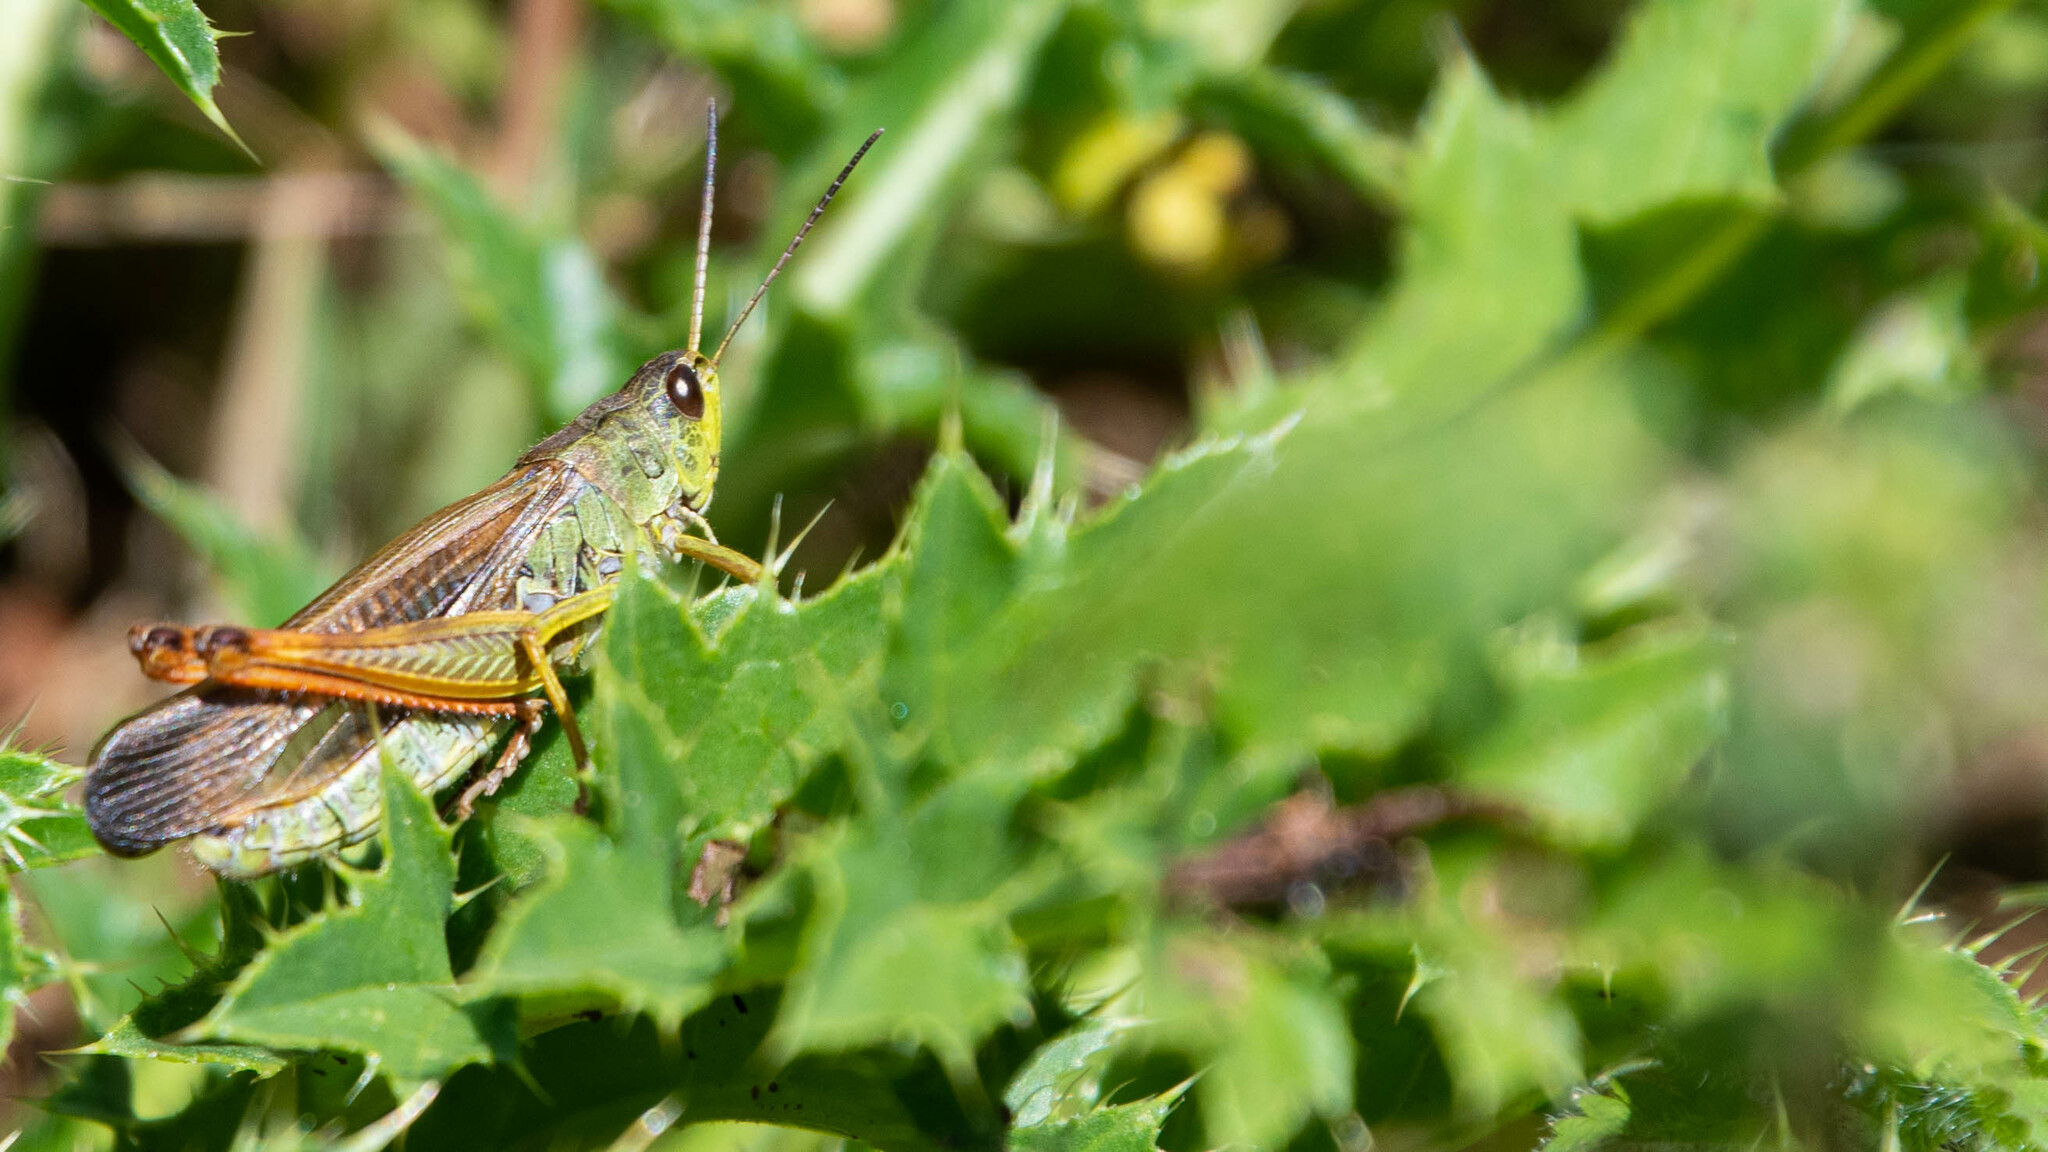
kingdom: Animalia
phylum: Arthropoda
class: Insecta
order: Orthoptera
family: Acrididae
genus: Stauroderus
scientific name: Stauroderus scalaris
